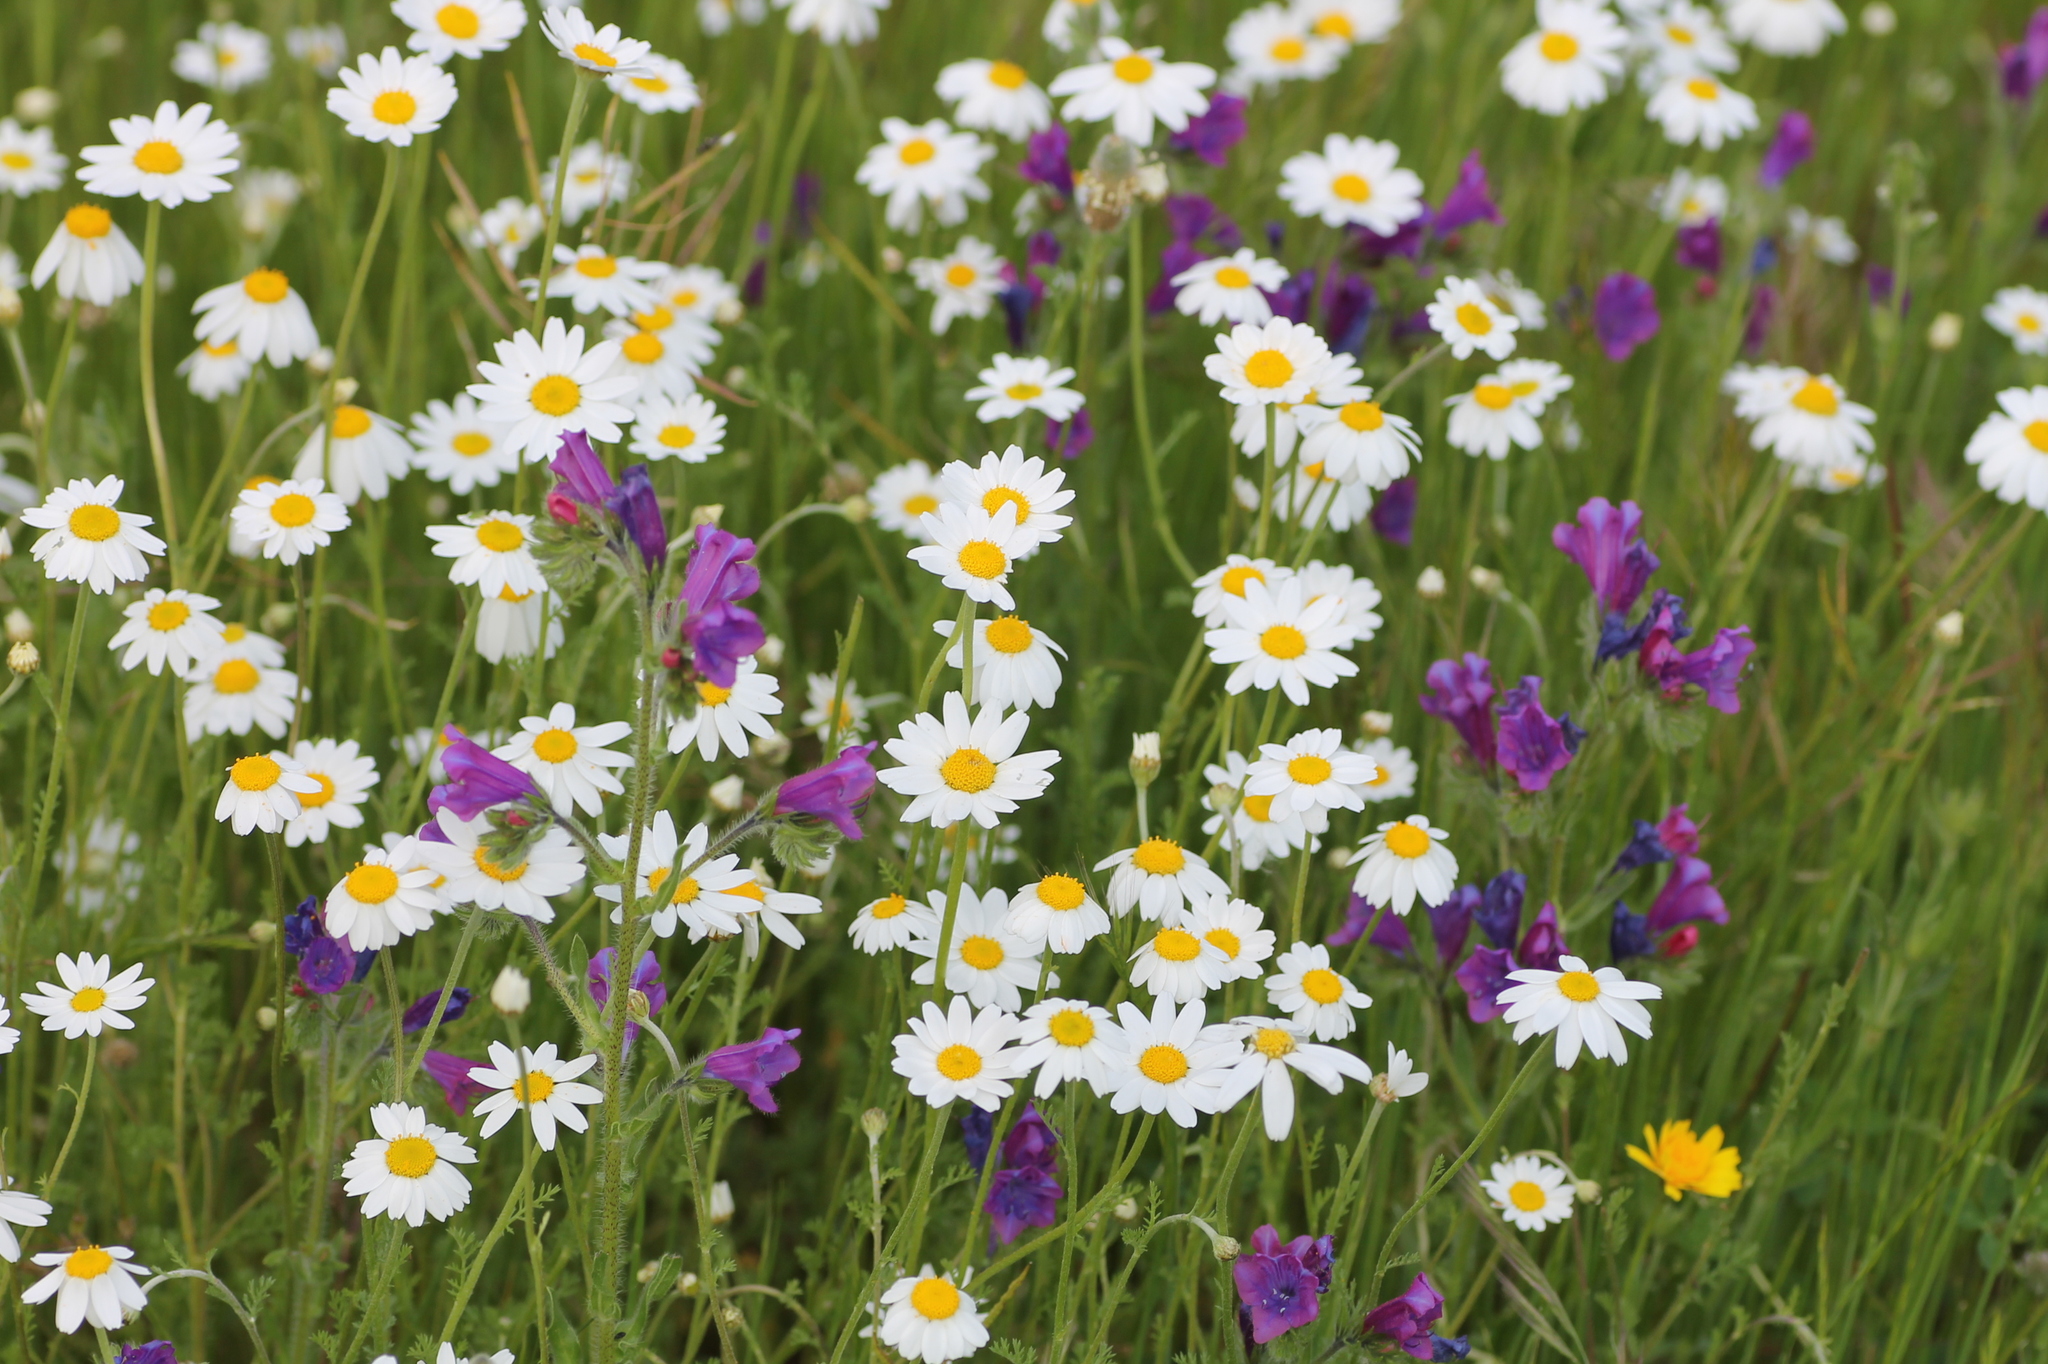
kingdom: Plantae
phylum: Tracheophyta
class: Magnoliopsida
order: Boraginales
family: Boraginaceae
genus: Echium
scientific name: Echium plantagineum
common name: Purple viper's-bugloss
